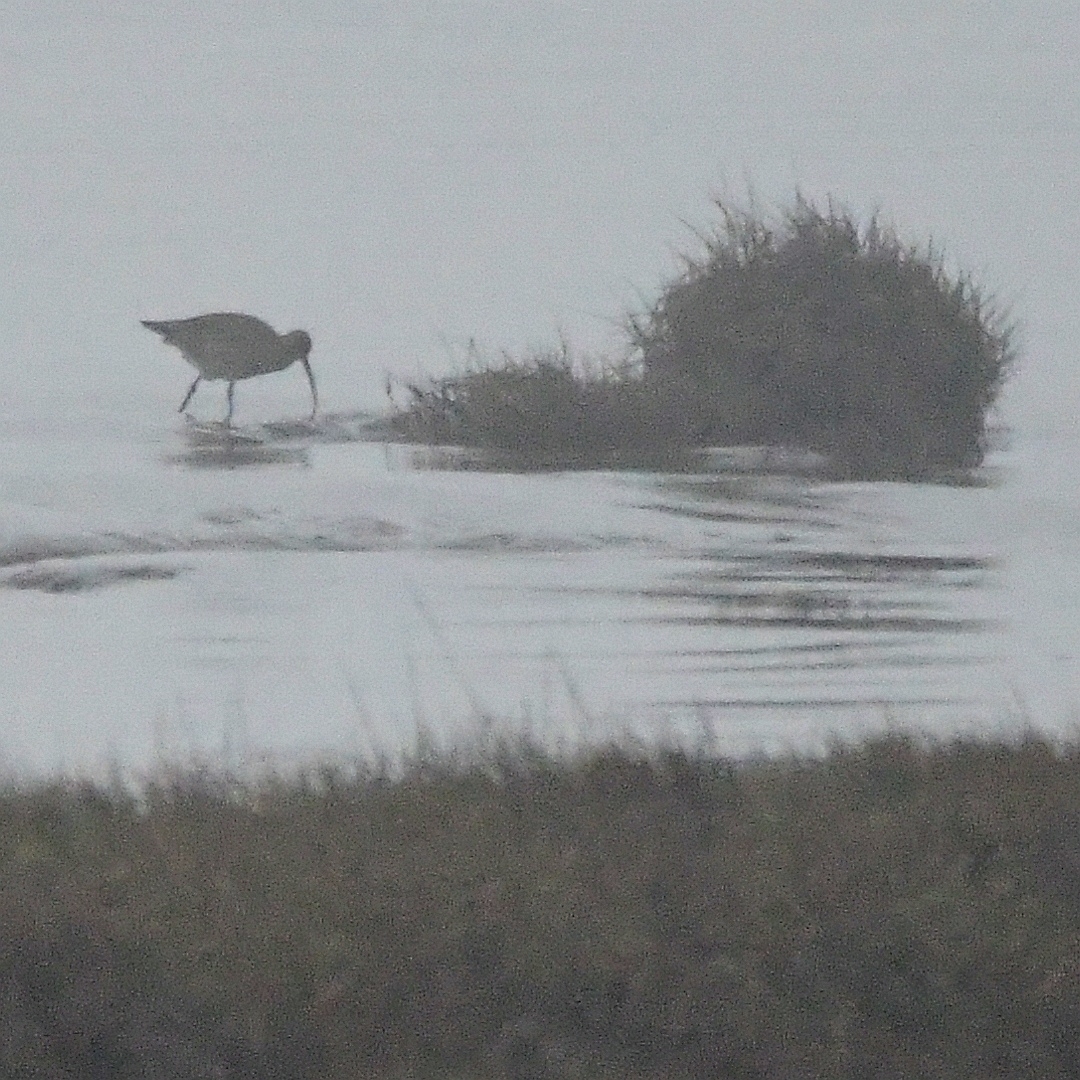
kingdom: Animalia
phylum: Chordata
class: Aves
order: Charadriiformes
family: Scolopacidae
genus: Numenius
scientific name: Numenius arquata
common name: Eurasian curlew
